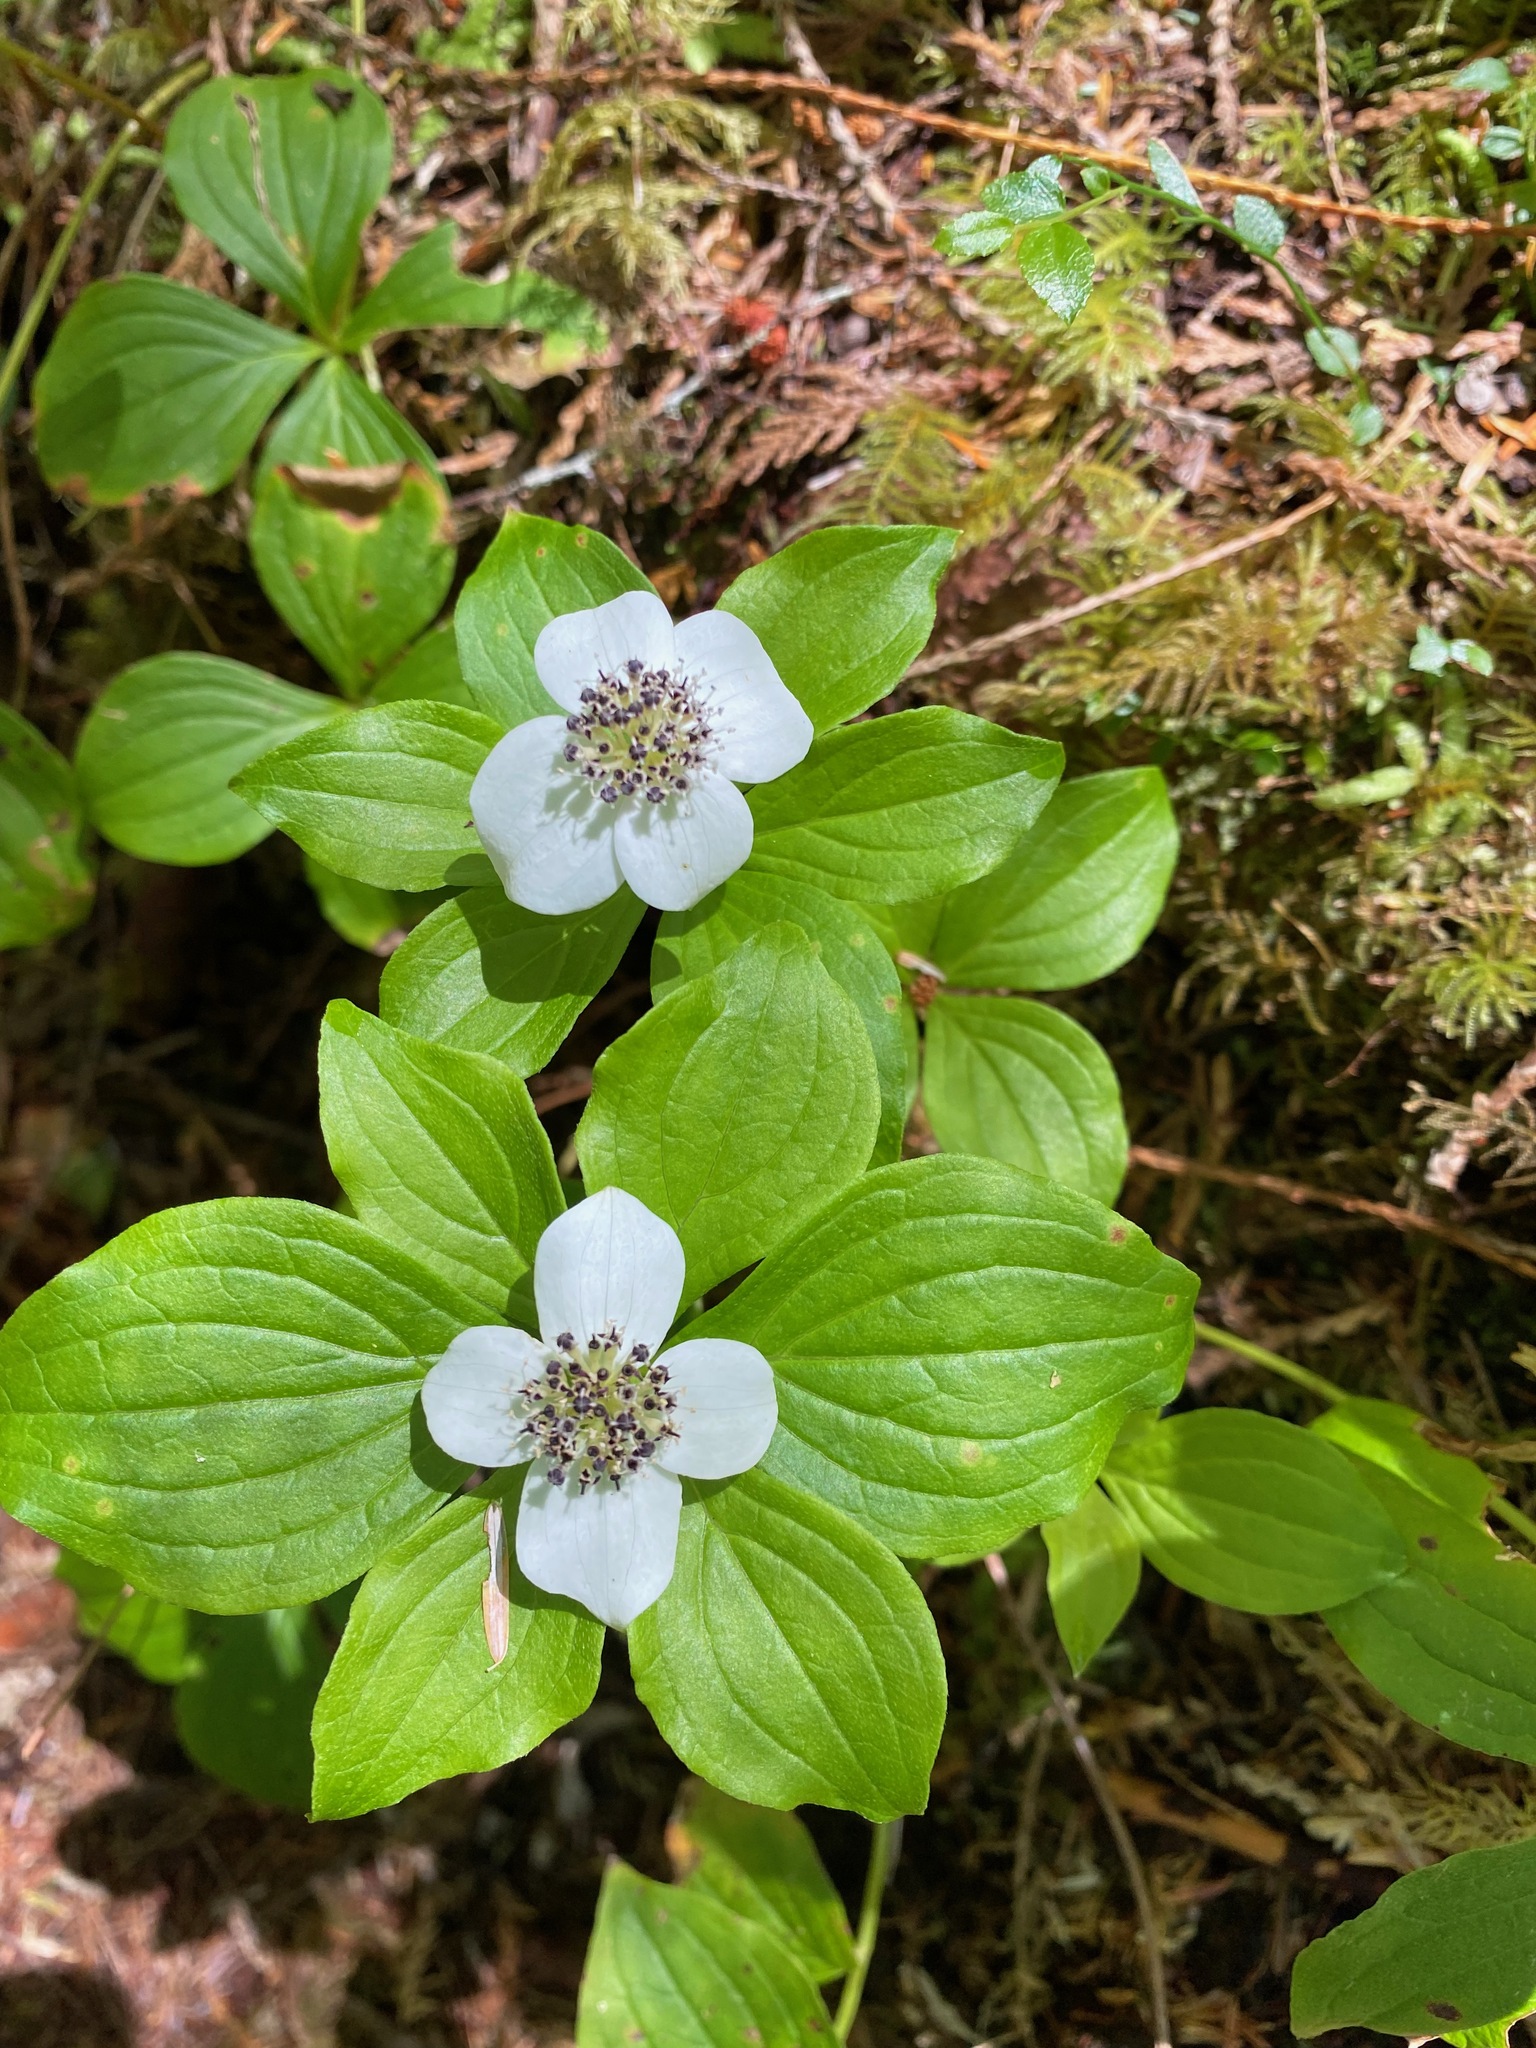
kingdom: Plantae
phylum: Tracheophyta
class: Magnoliopsida
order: Cornales
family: Cornaceae
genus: Cornus
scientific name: Cornus unalaschkensis
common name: Alaska bunchberry
